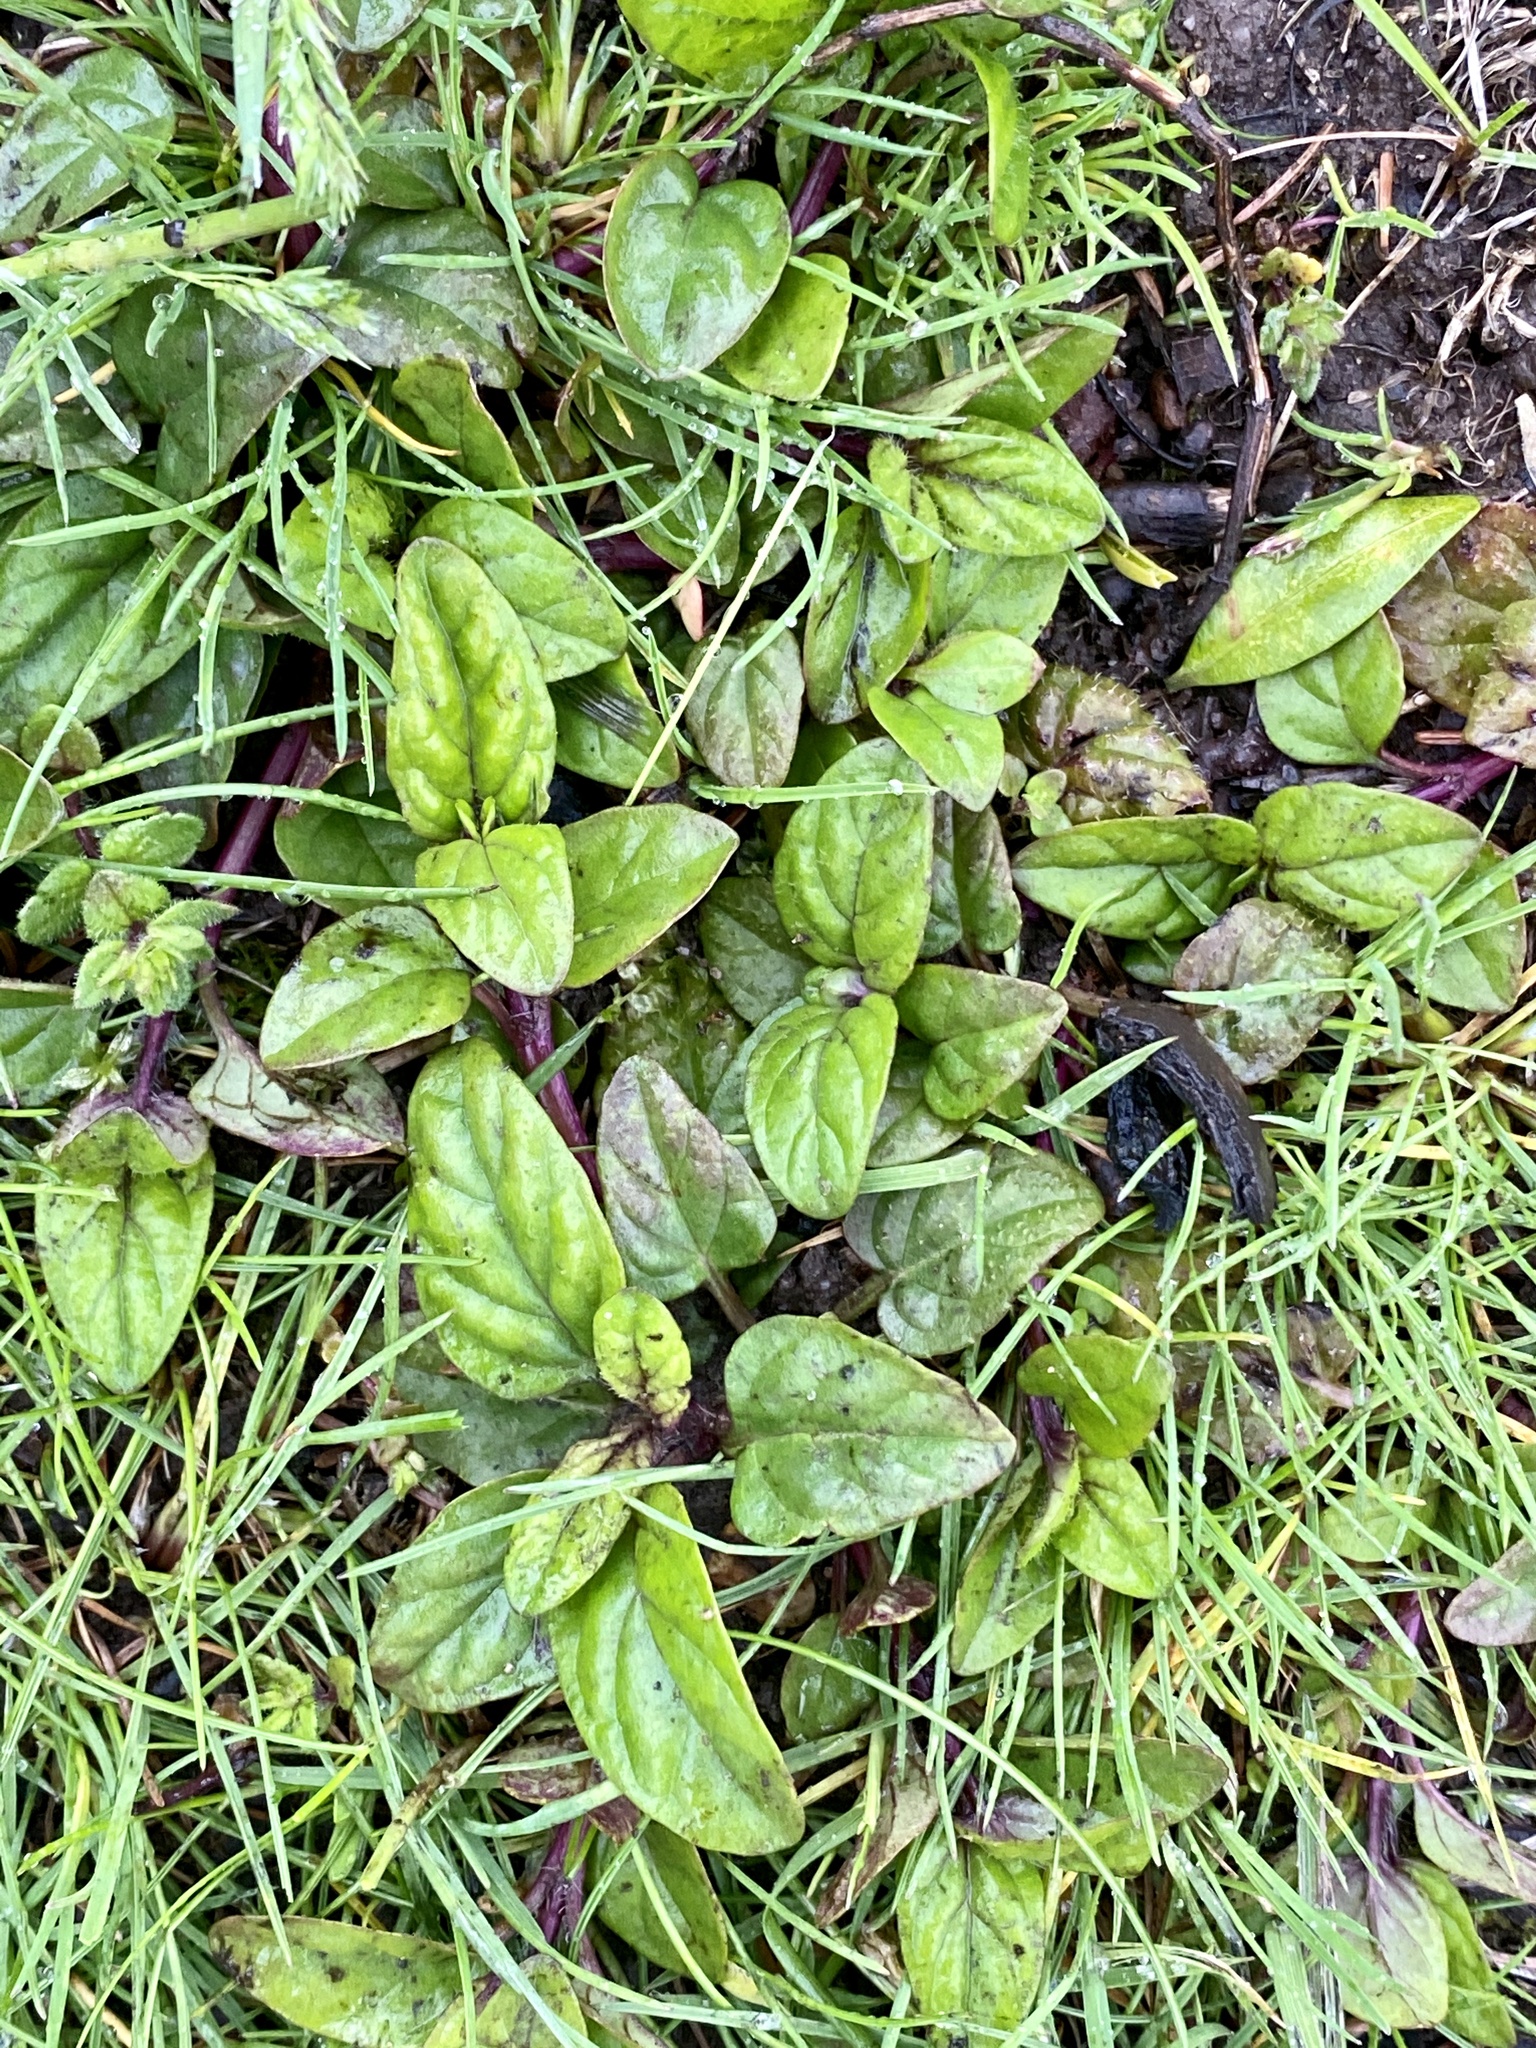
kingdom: Plantae
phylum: Tracheophyta
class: Magnoliopsida
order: Lamiales
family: Lamiaceae
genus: Prunella
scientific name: Prunella vulgaris
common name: Heal-all
